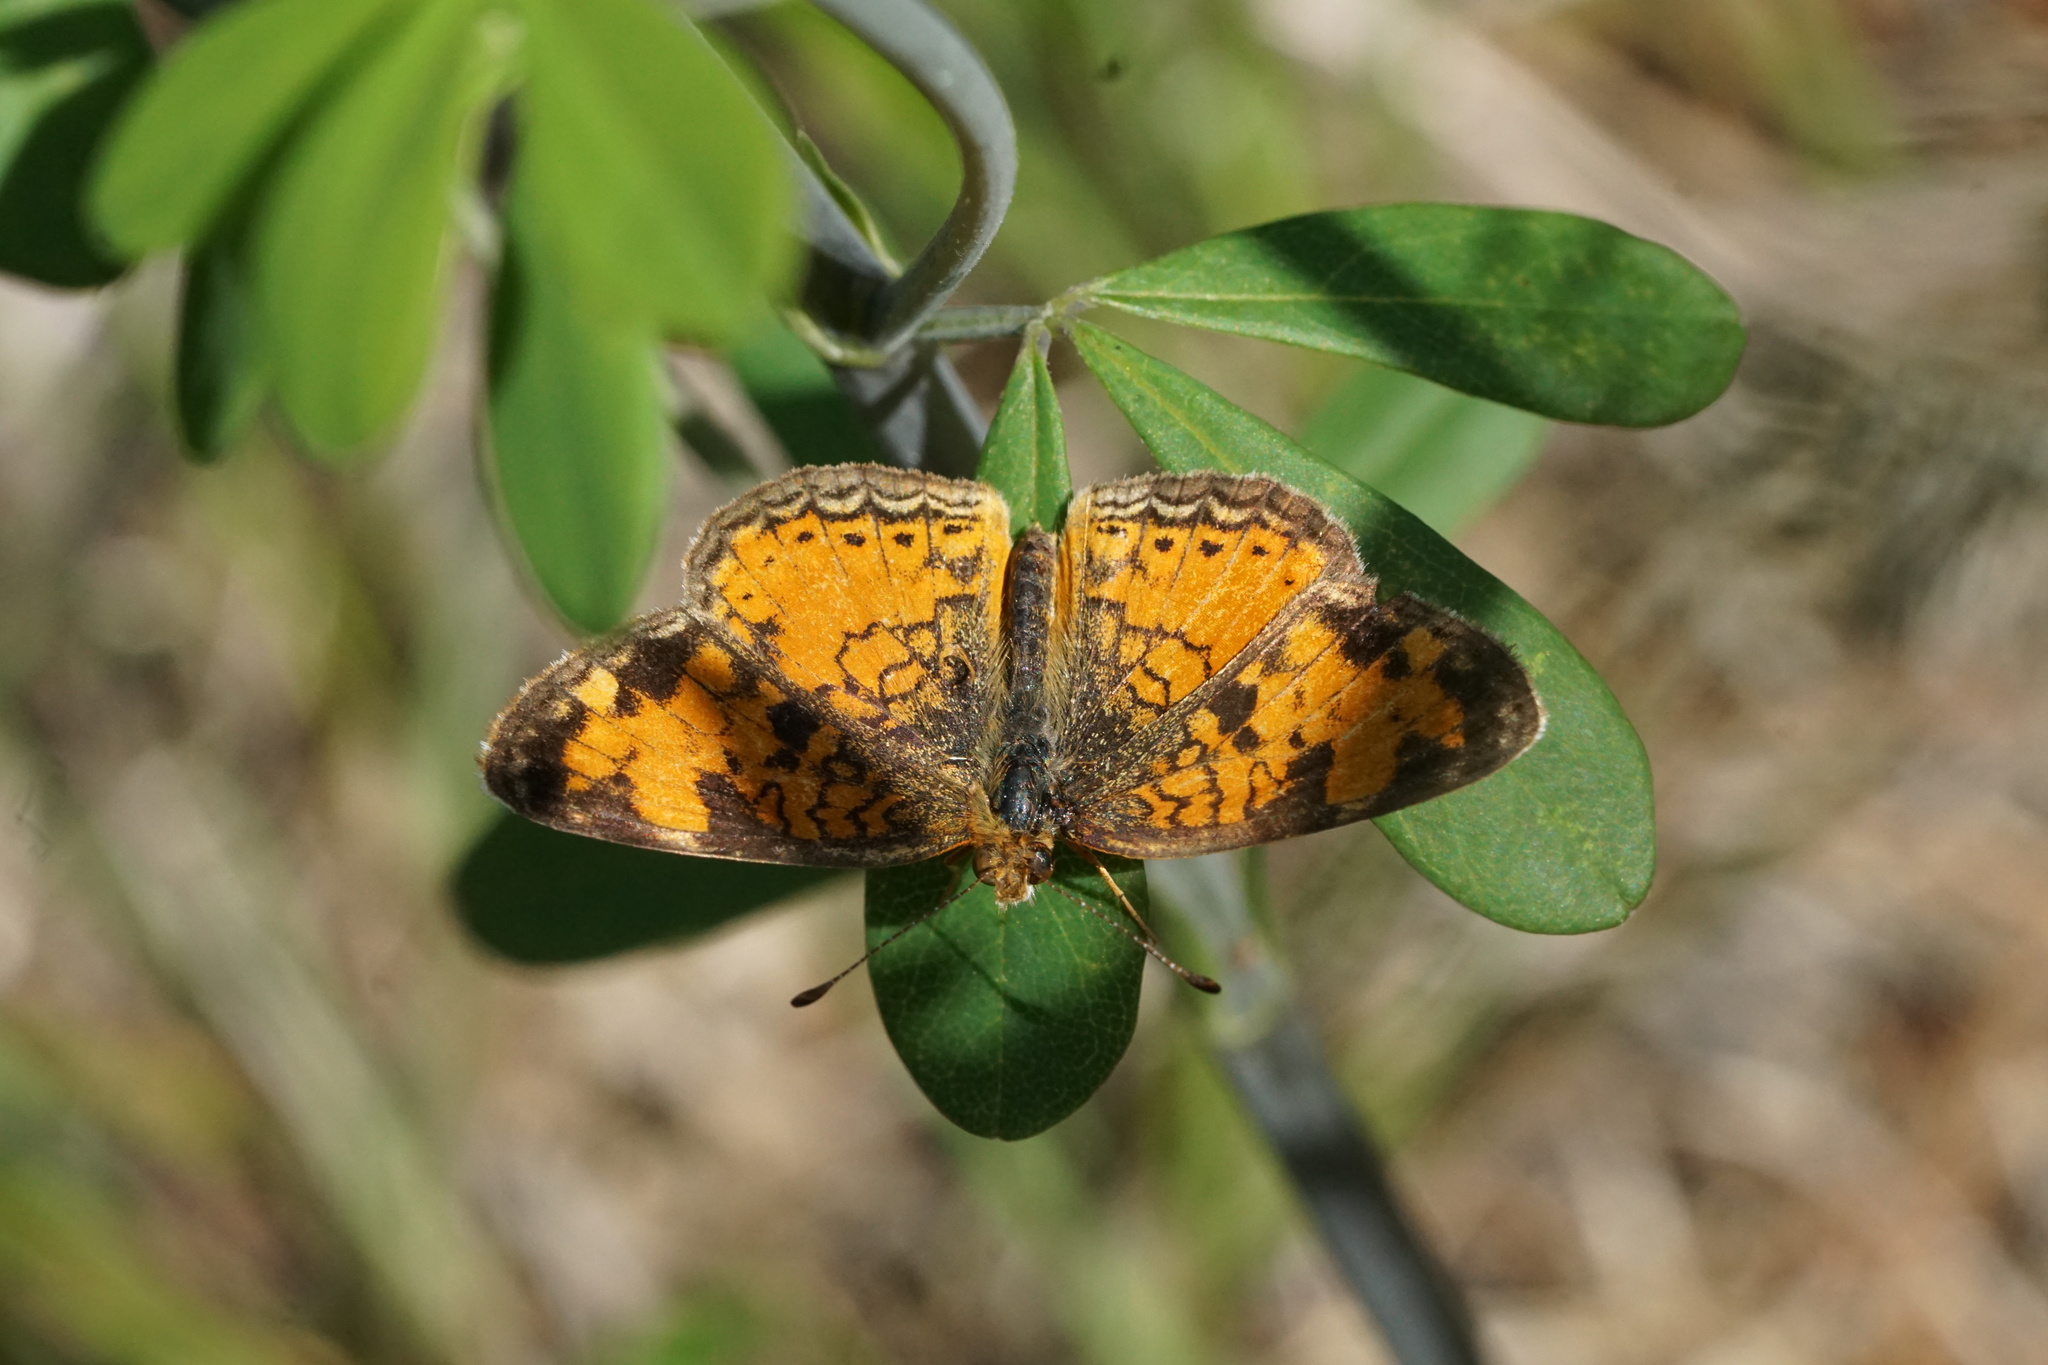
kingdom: Animalia
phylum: Arthropoda
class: Insecta
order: Lepidoptera
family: Nymphalidae
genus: Phyciodes
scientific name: Phyciodes tharos
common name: Pearl crescent
